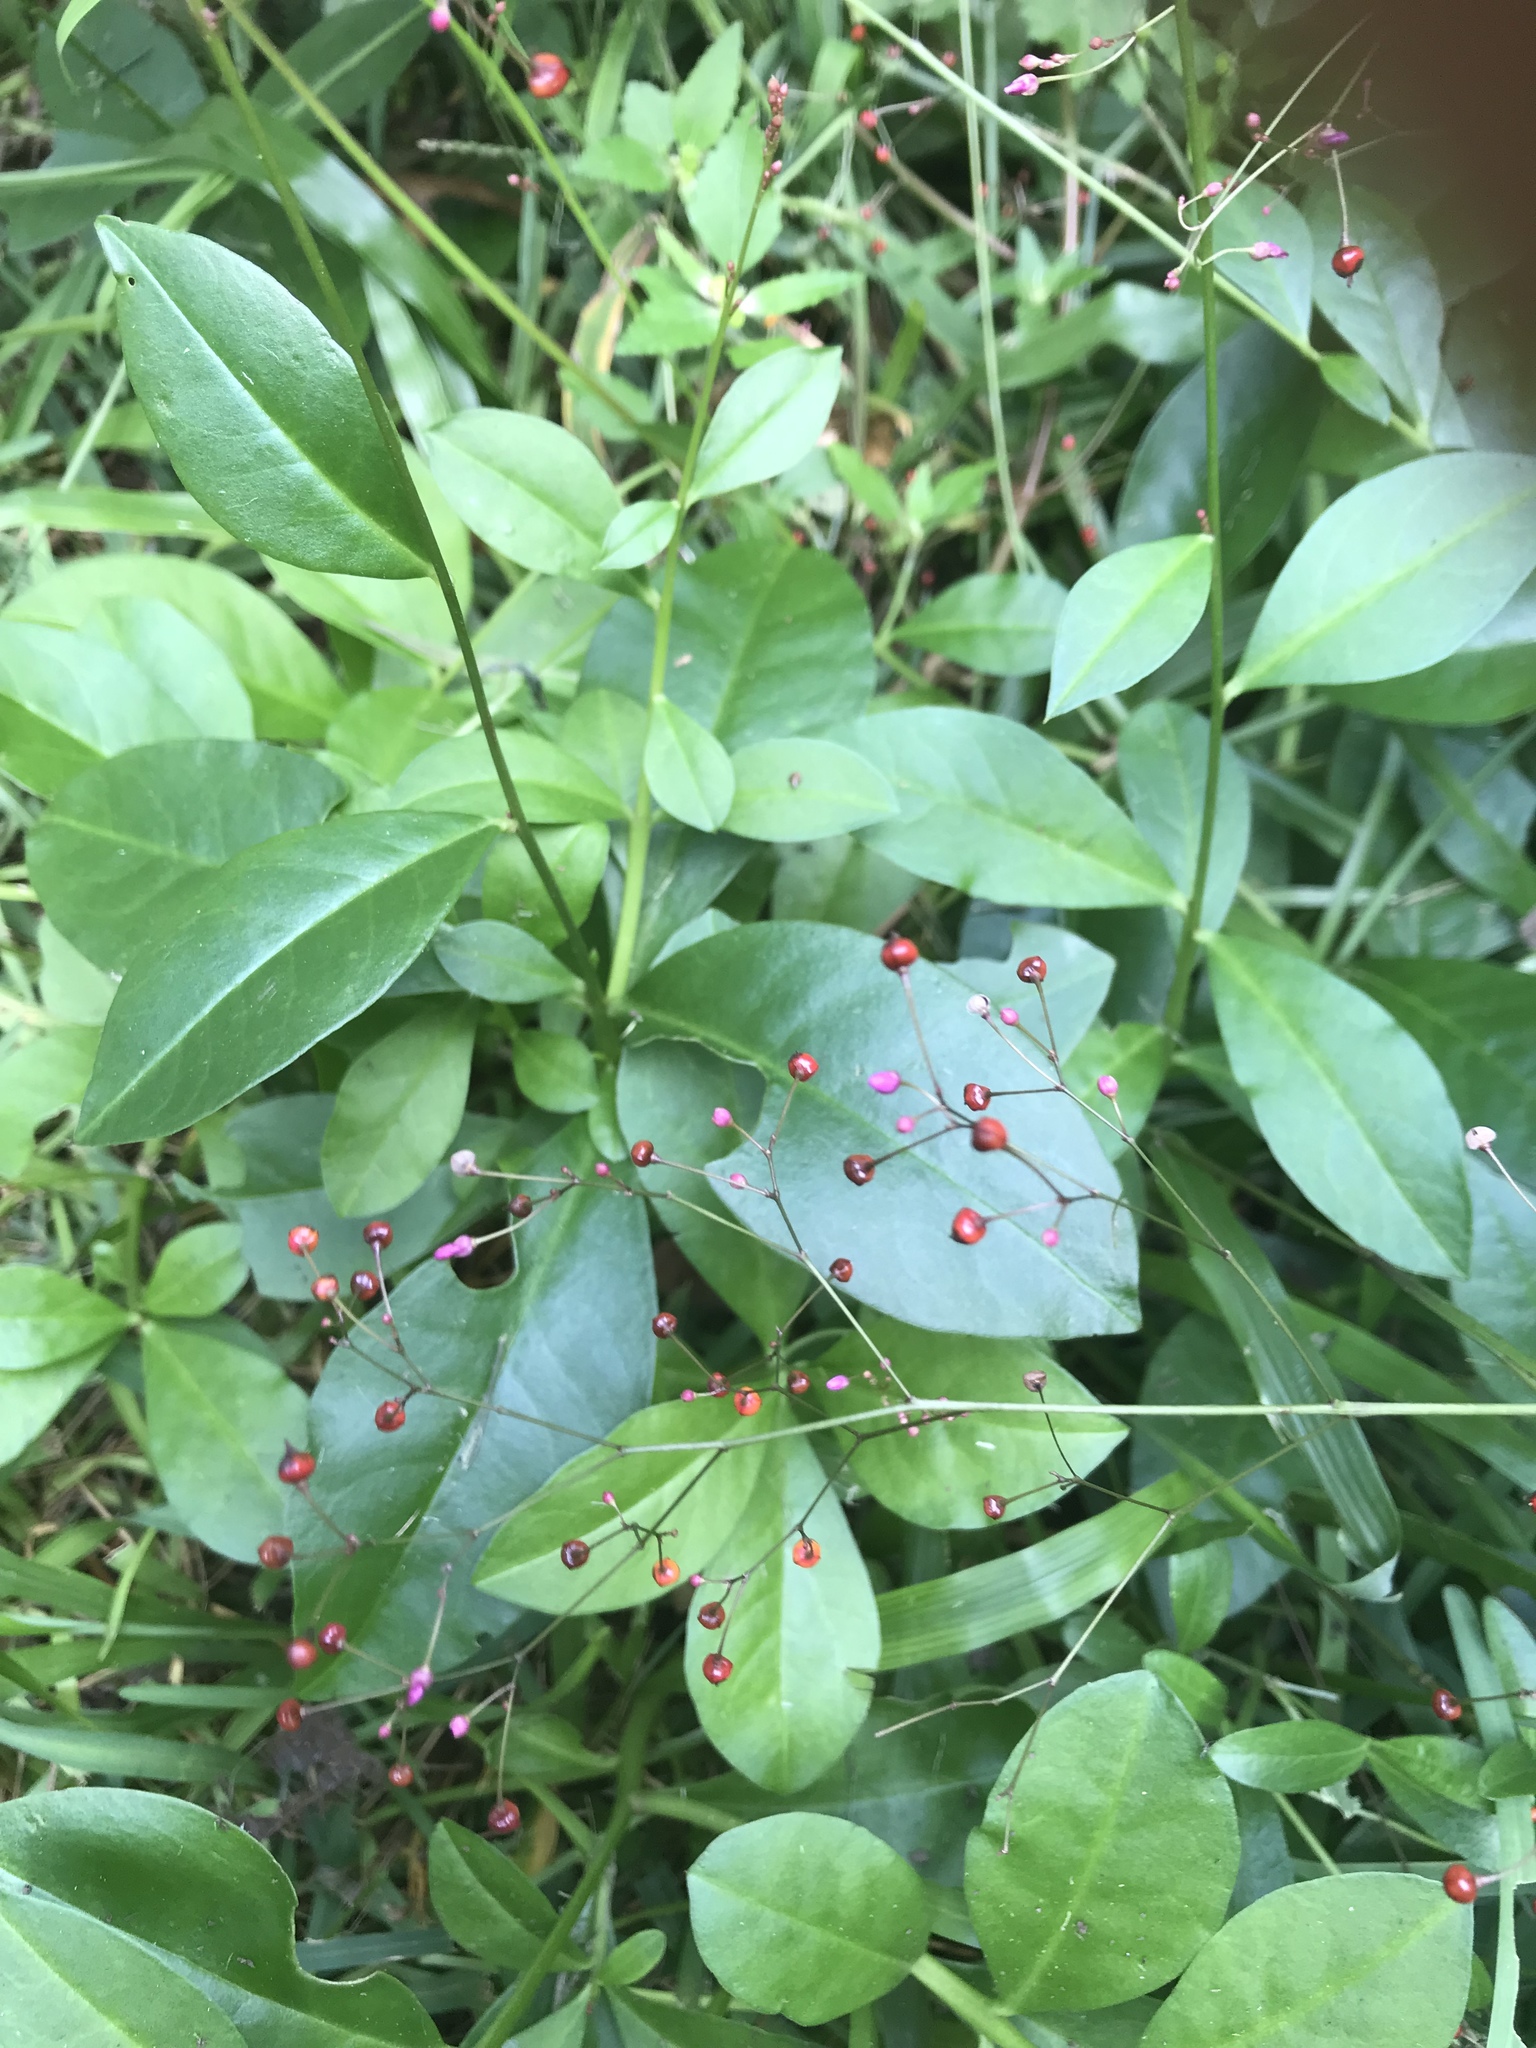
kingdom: Plantae
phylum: Tracheophyta
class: Magnoliopsida
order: Caryophyllales
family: Talinaceae
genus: Talinum
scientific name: Talinum paniculatum
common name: Jewels of opar
